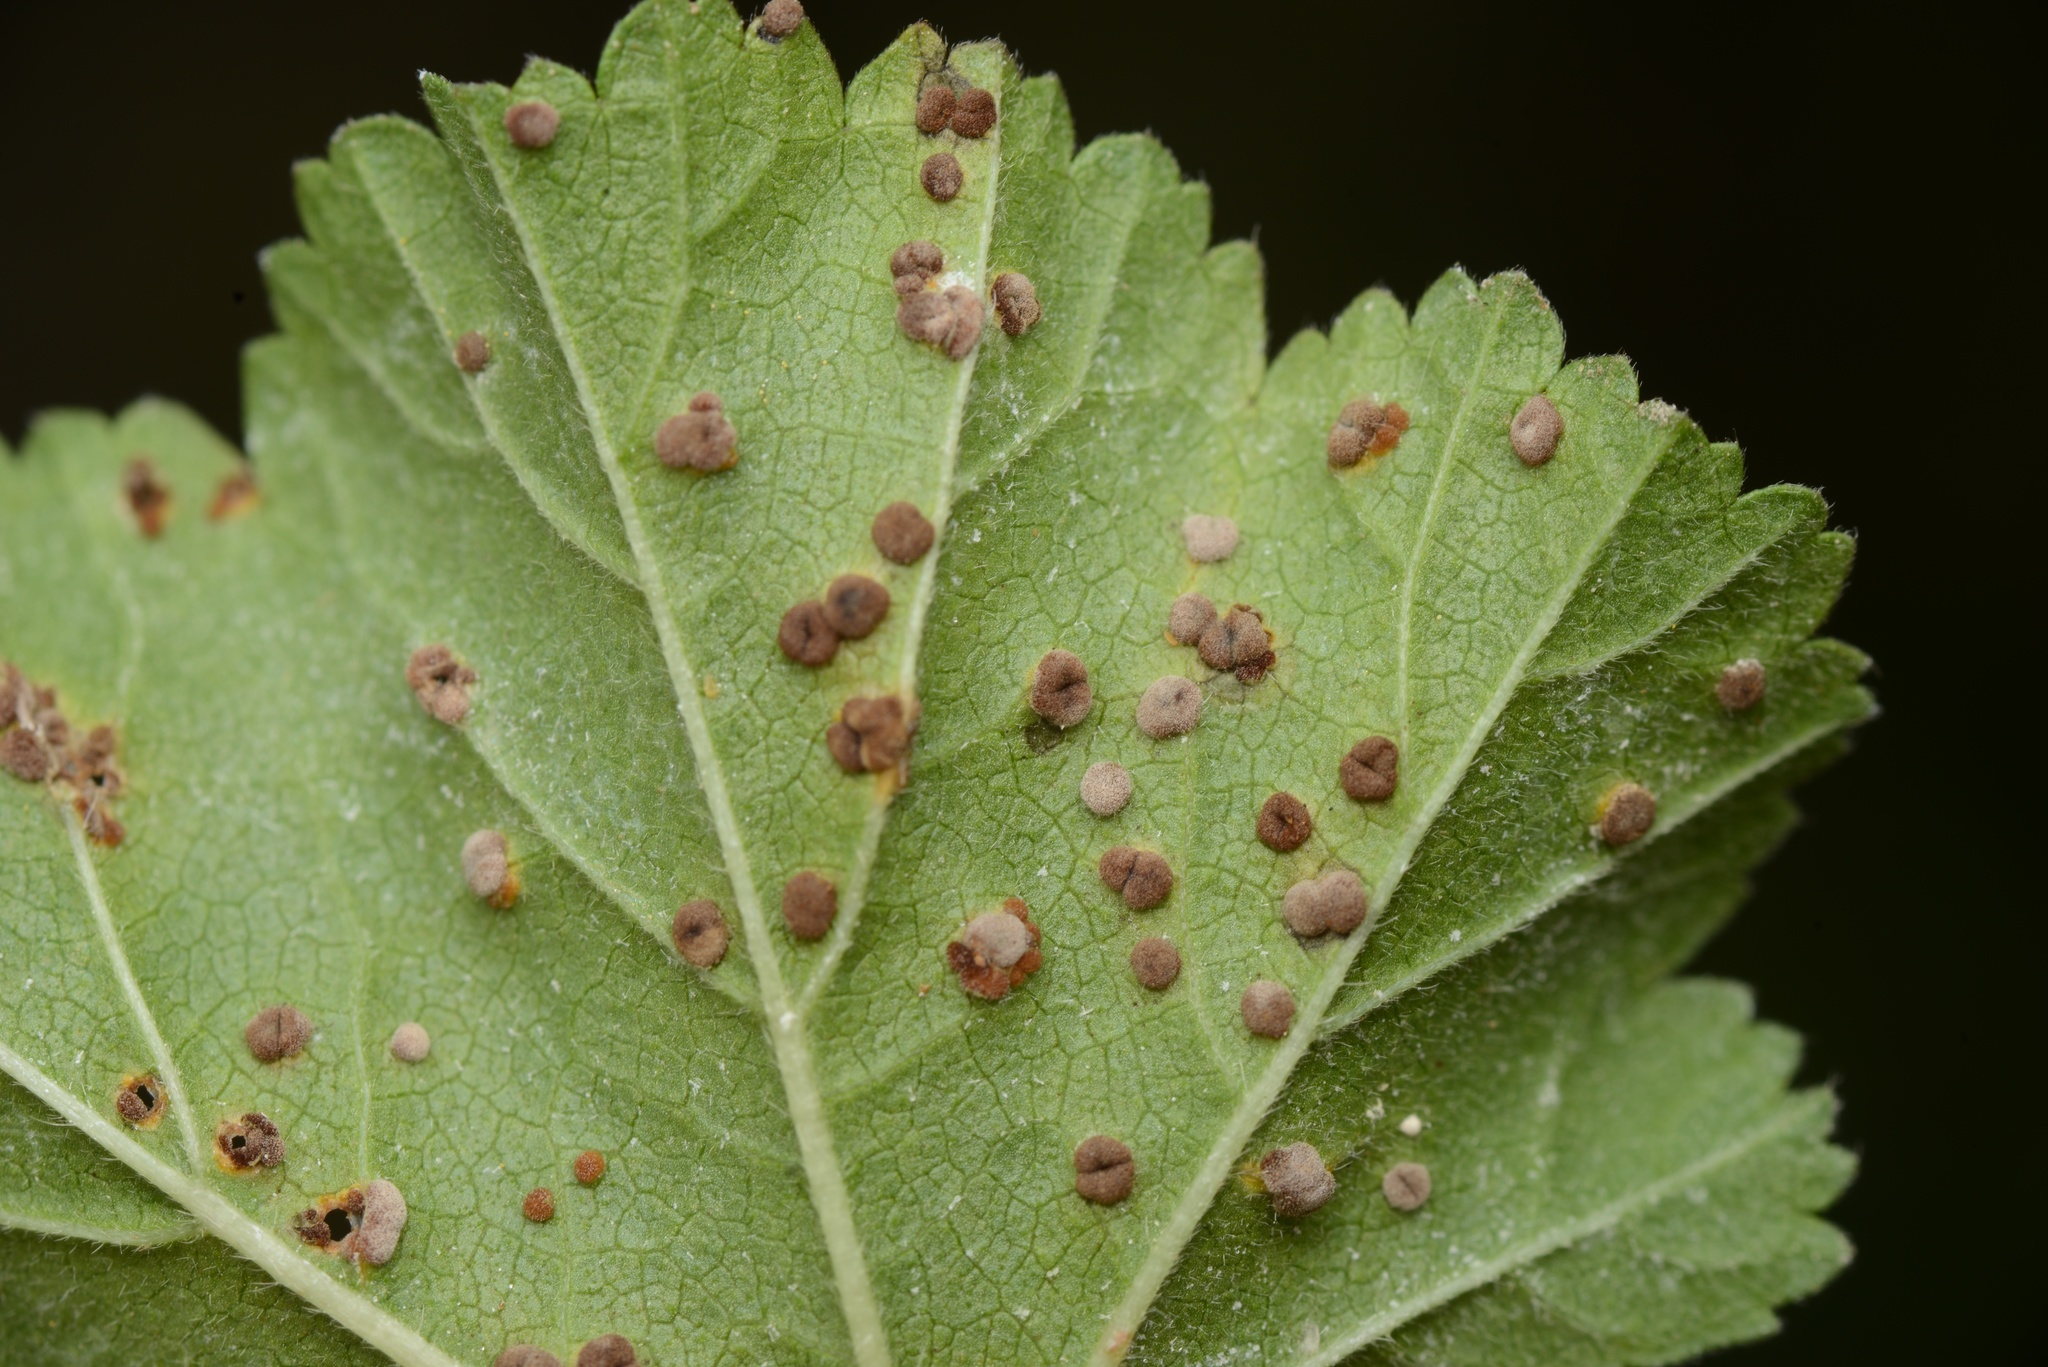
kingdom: Fungi
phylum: Basidiomycota
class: Pucciniomycetes
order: Pucciniales
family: Pucciniaceae
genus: Puccinia
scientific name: Puccinia malvacearum
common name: Hollyhock rust
